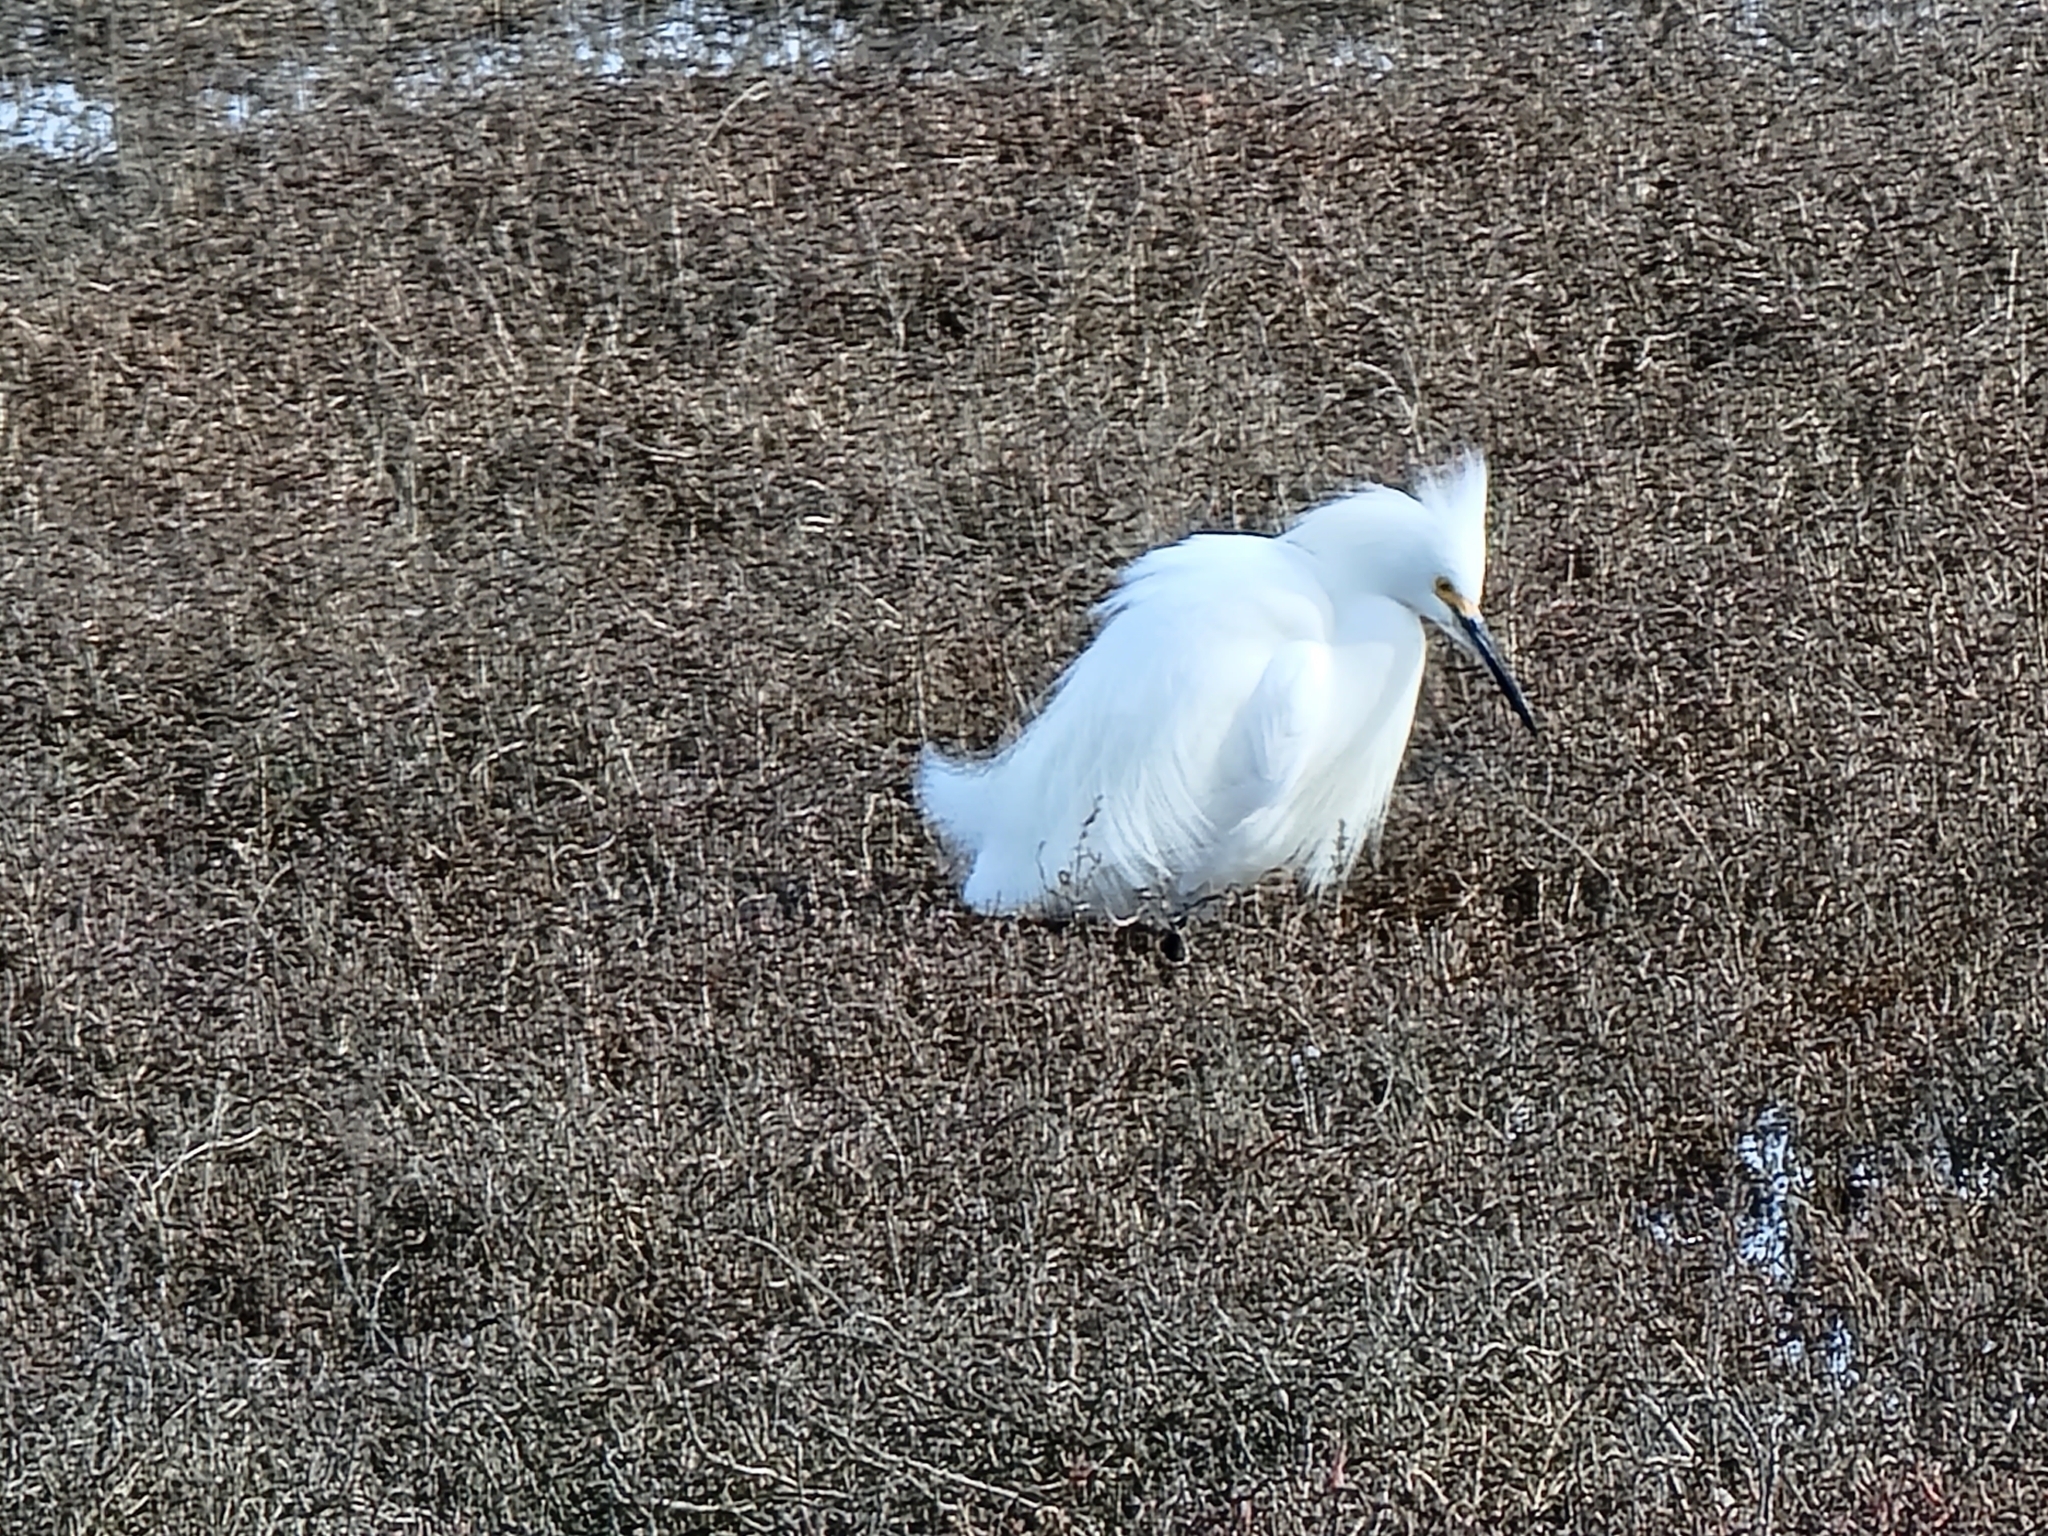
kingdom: Animalia
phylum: Chordata
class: Aves
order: Pelecaniformes
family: Ardeidae
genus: Egretta
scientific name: Egretta thula
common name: Snowy egret
